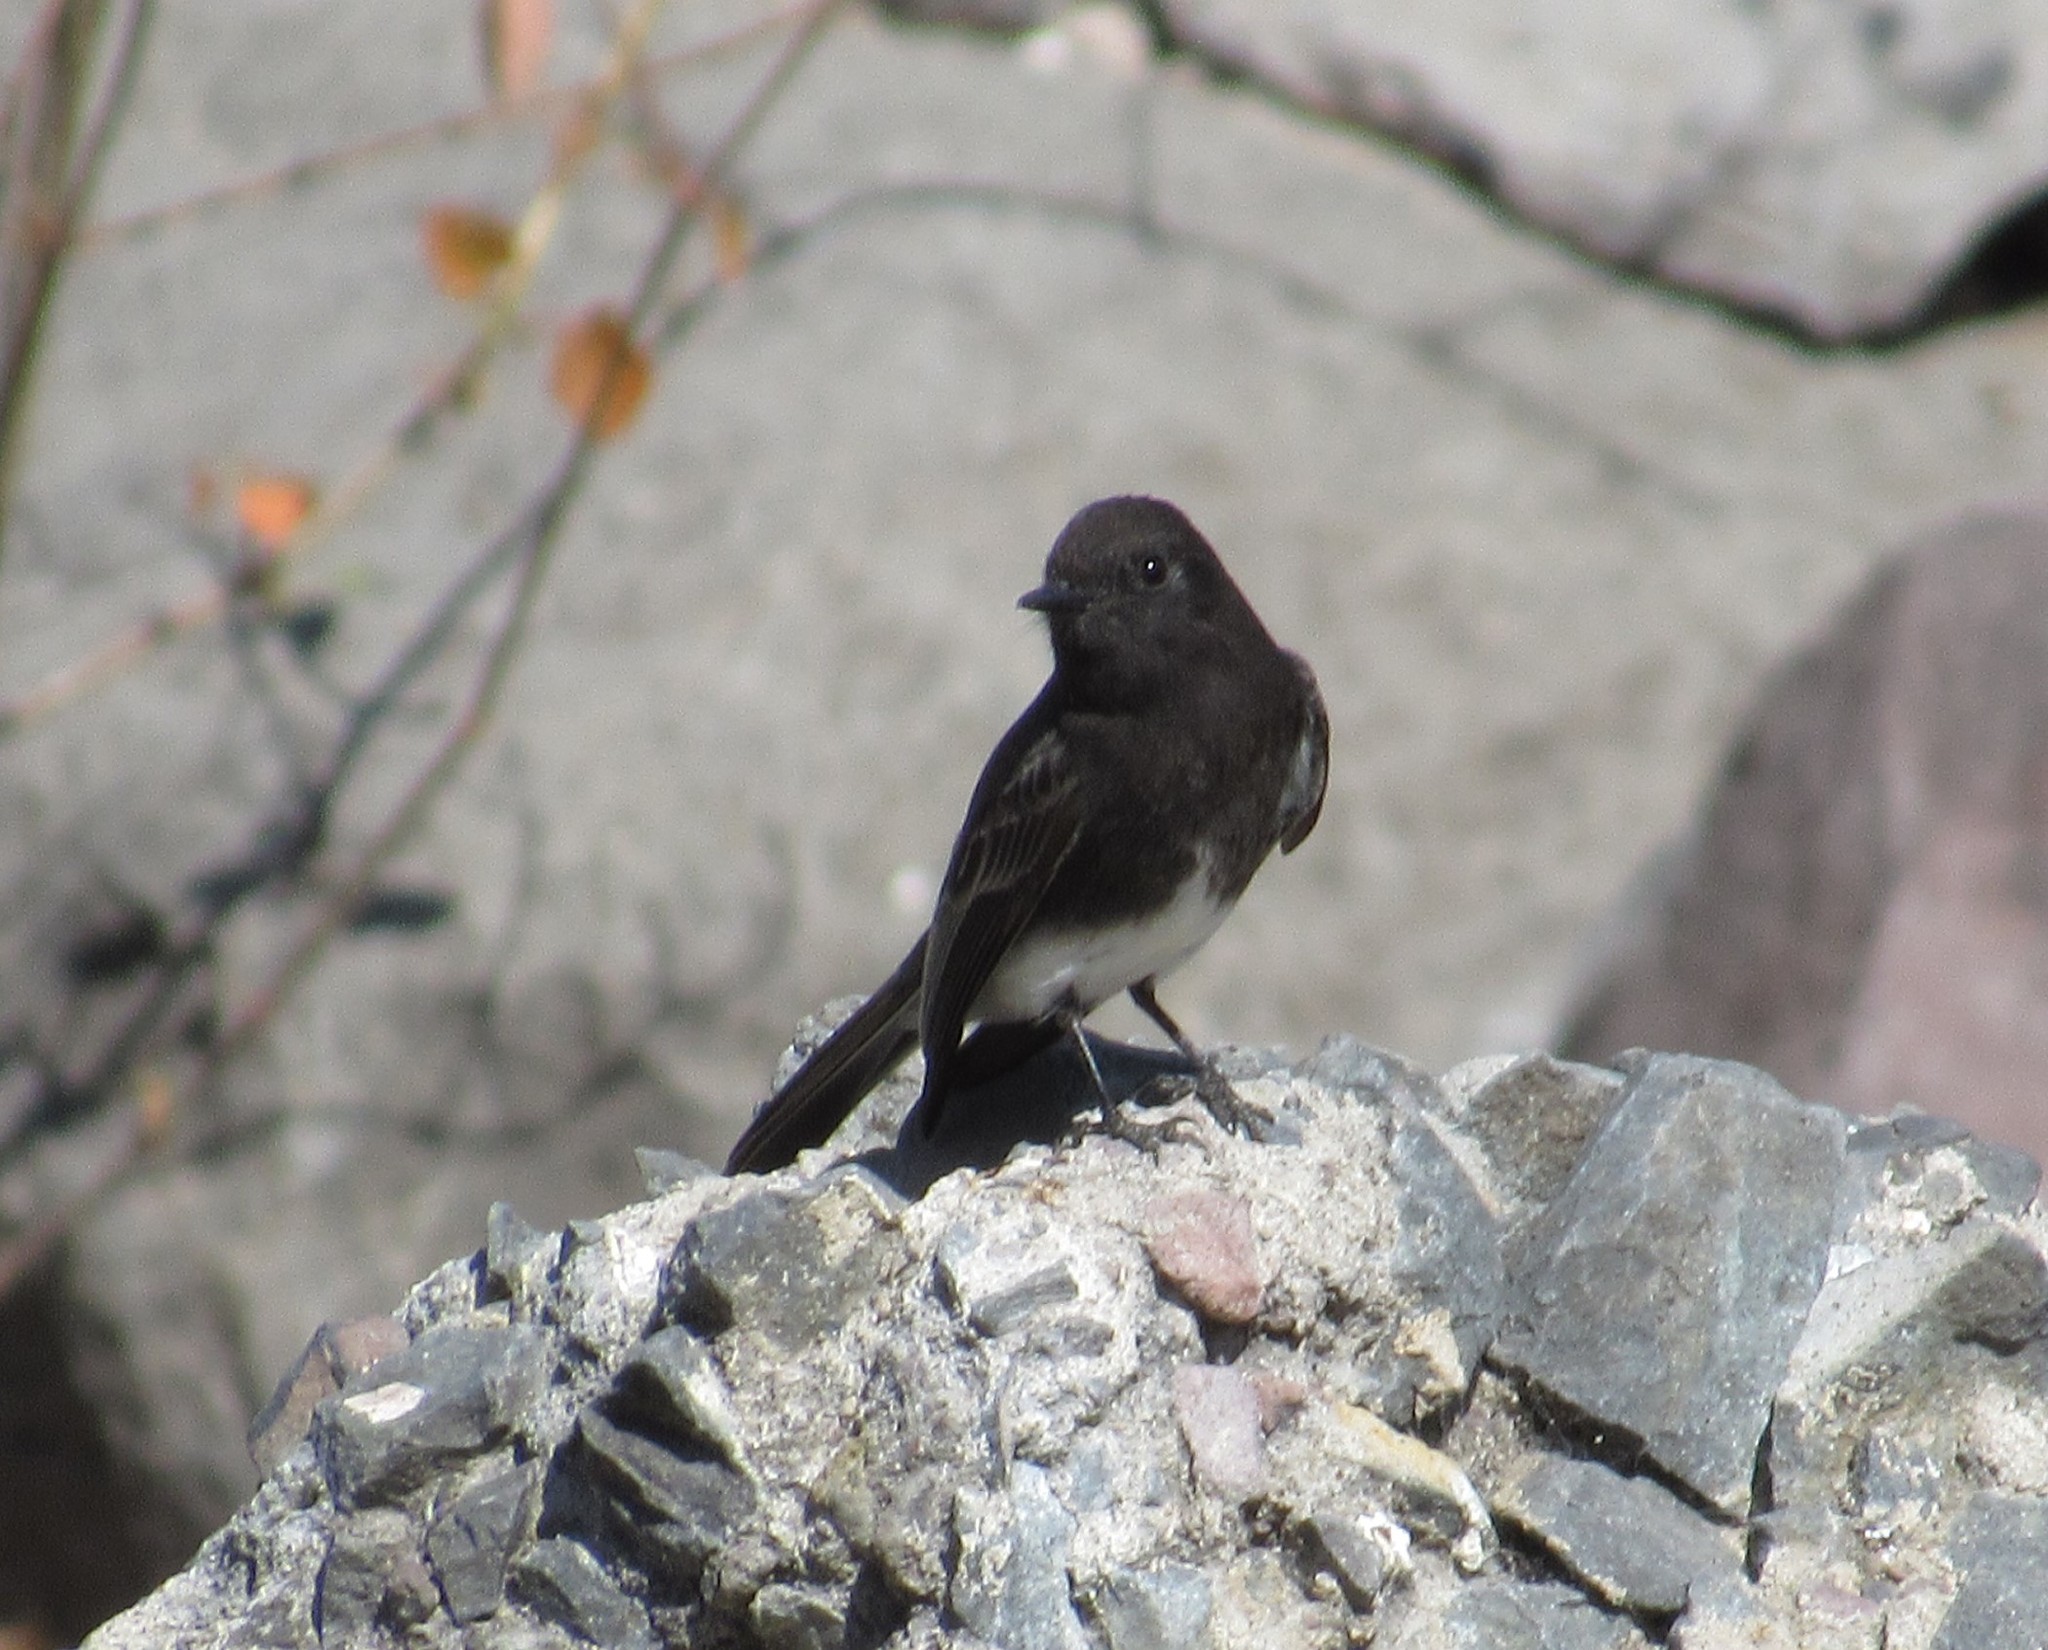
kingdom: Animalia
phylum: Chordata
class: Aves
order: Passeriformes
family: Tyrannidae
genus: Sayornis
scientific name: Sayornis nigricans
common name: Black phoebe
